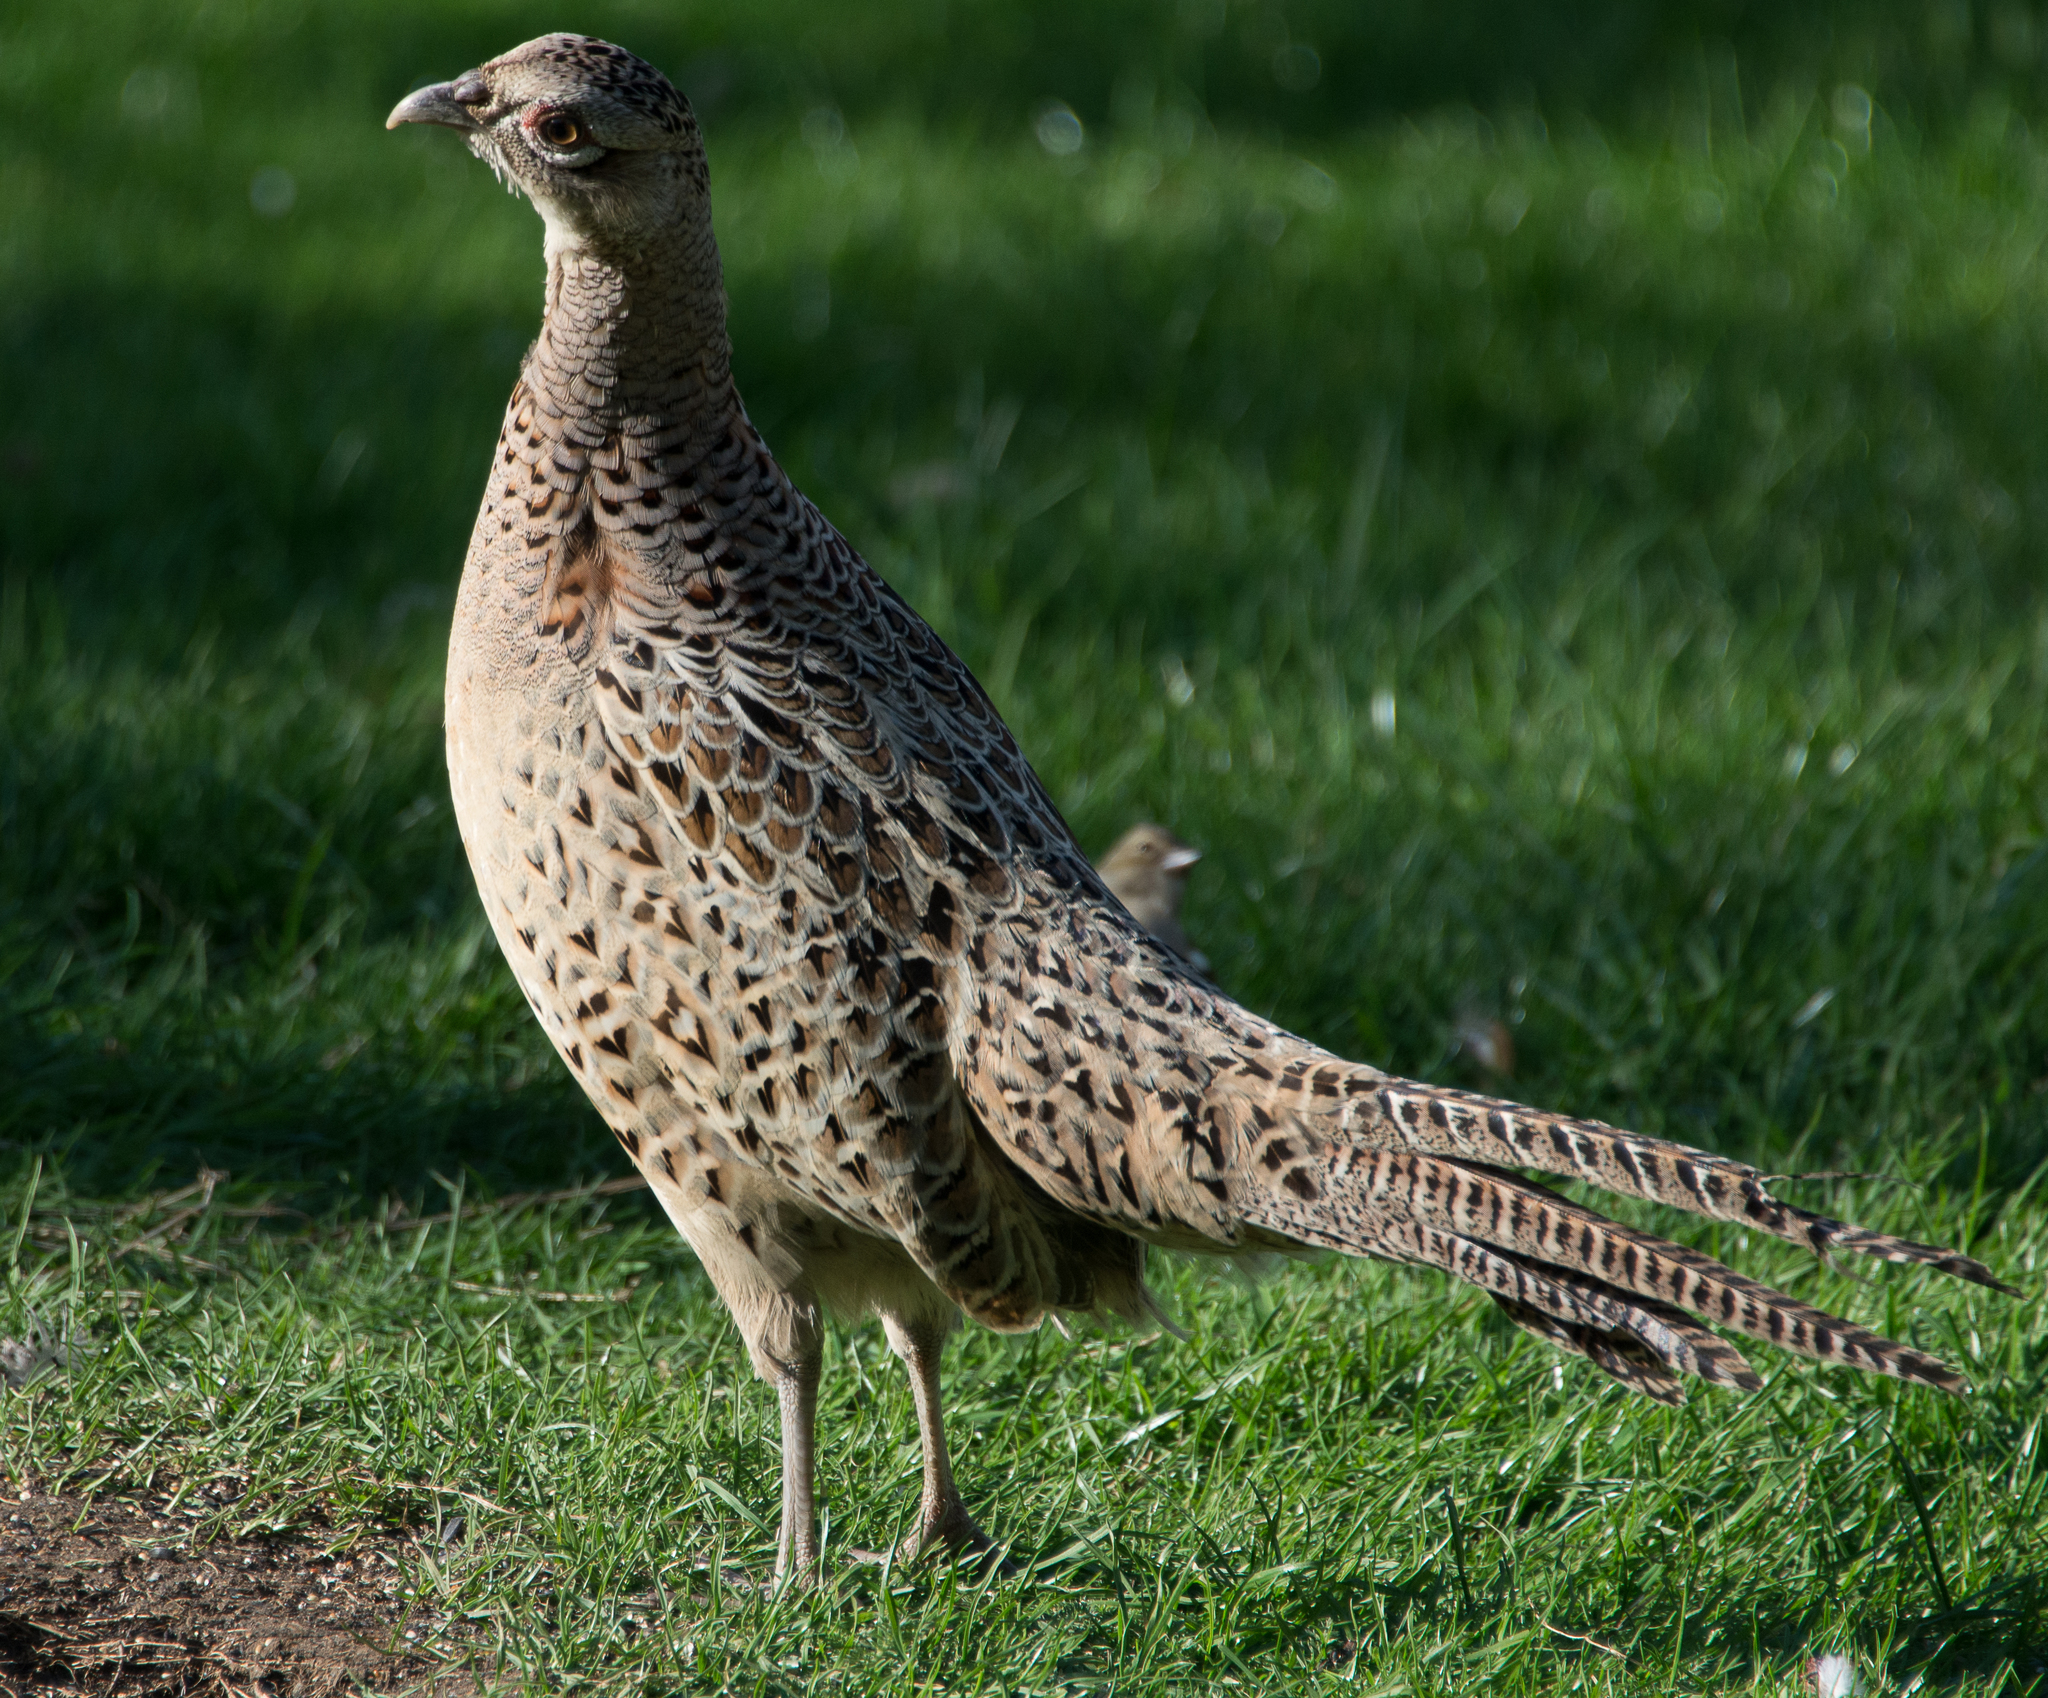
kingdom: Animalia
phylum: Chordata
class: Aves
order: Galliformes
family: Phasianidae
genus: Phasianus
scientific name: Phasianus colchicus
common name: Common pheasant
